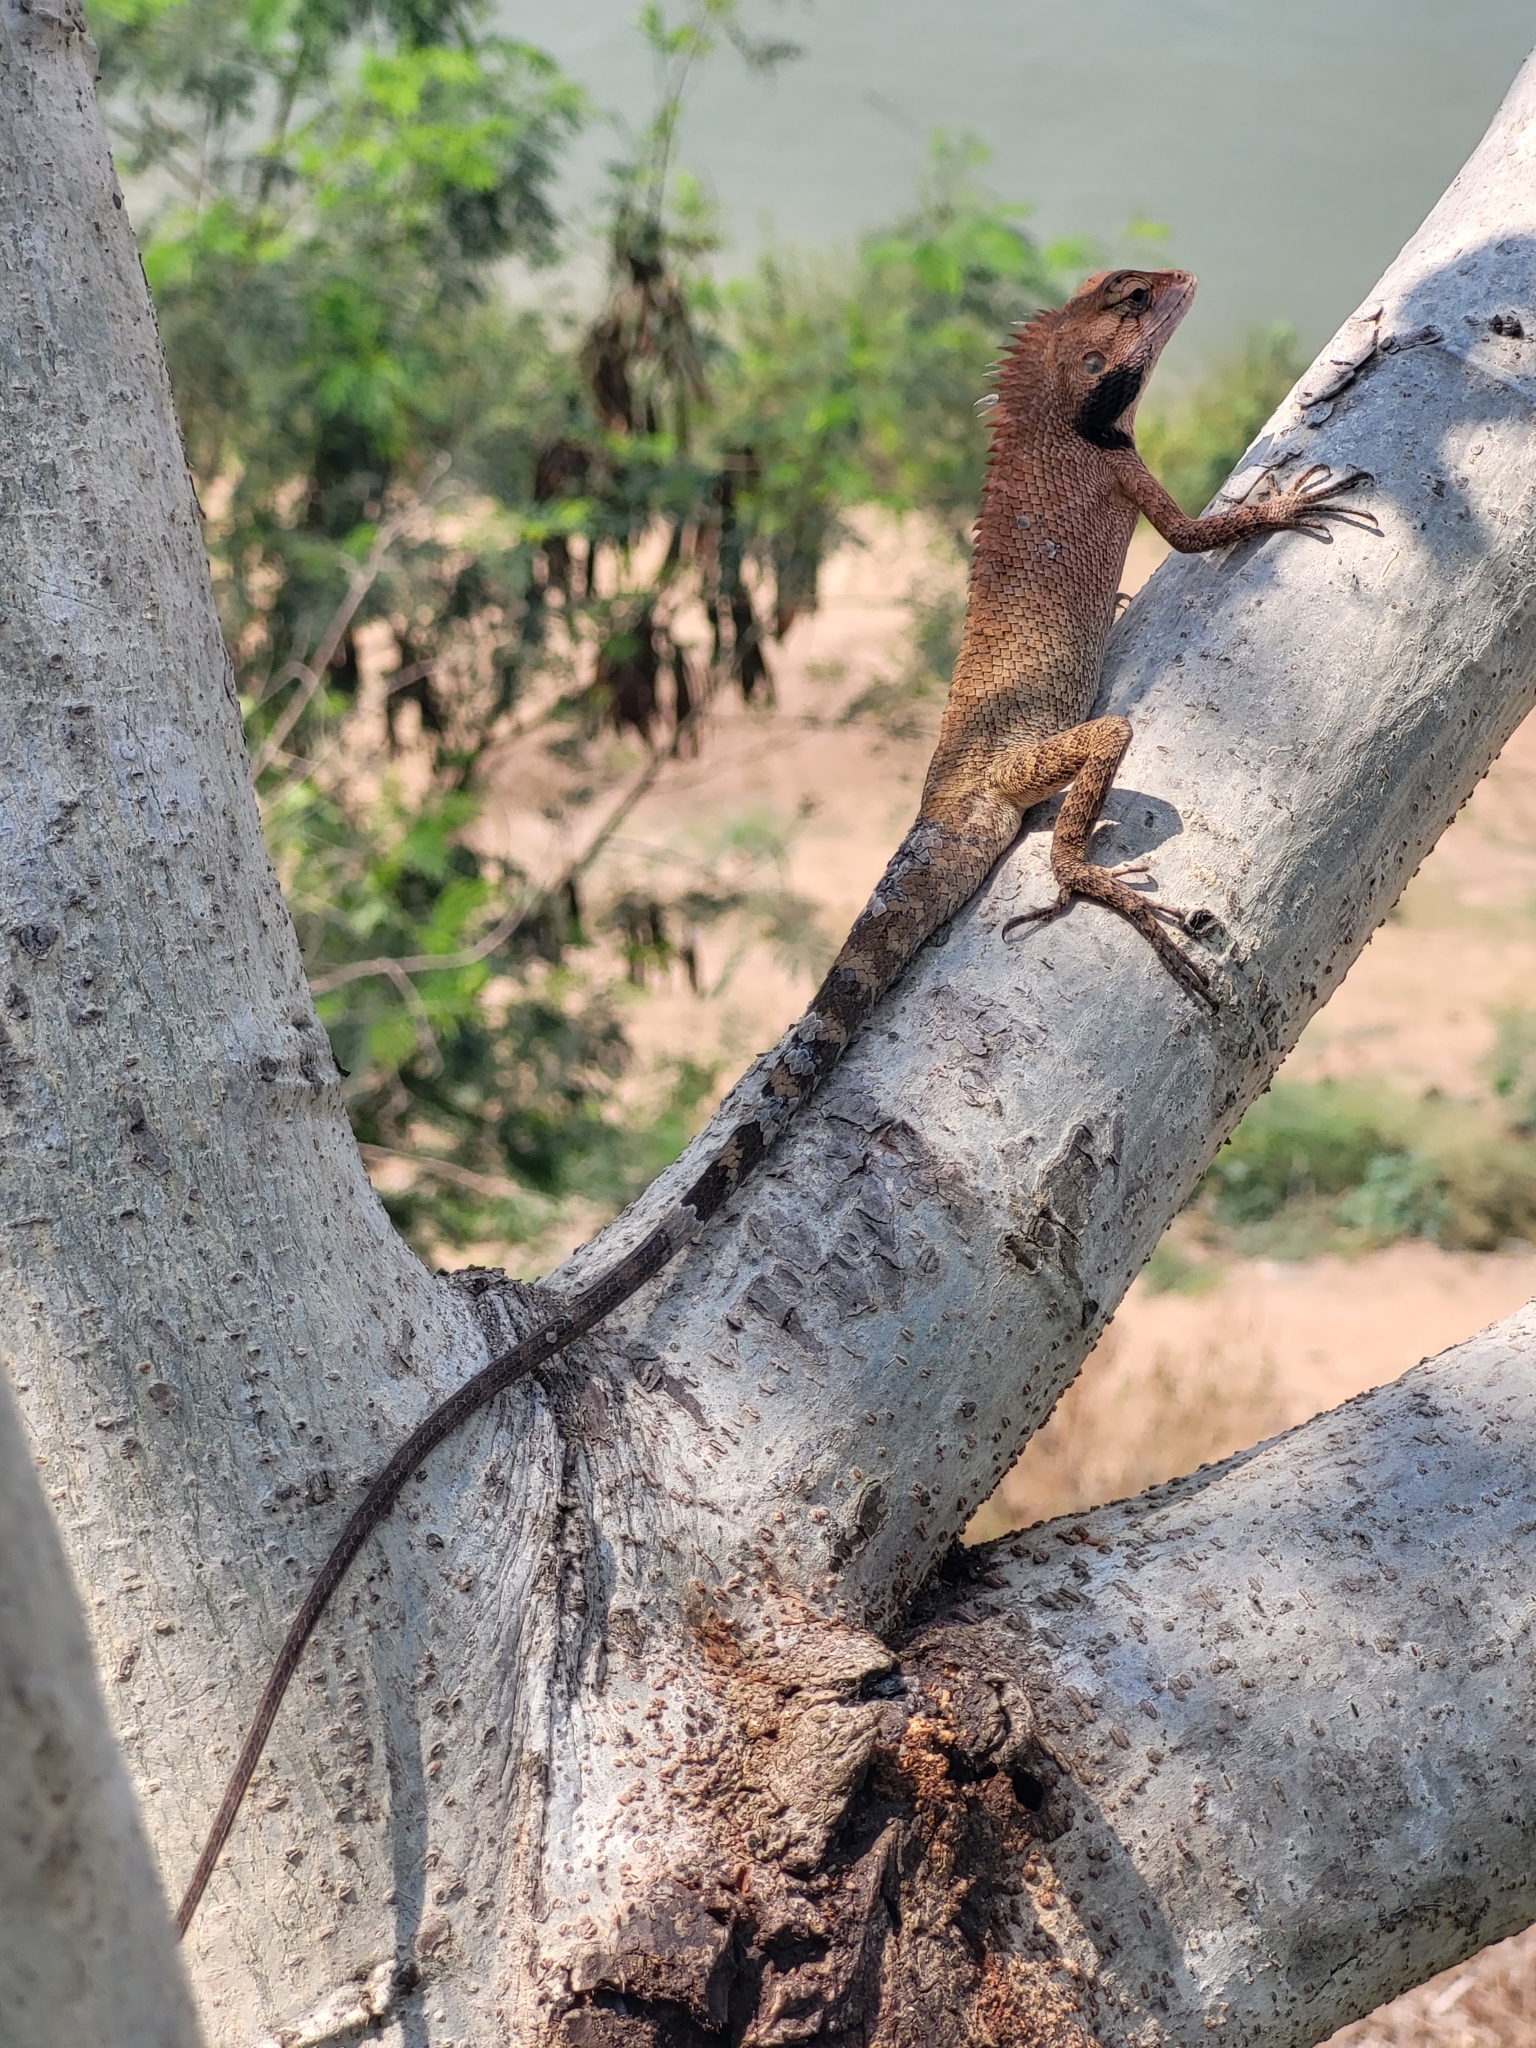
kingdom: Animalia
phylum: Chordata
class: Squamata
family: Agamidae
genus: Calotes
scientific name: Calotes versicolor
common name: Oriental garden lizard
